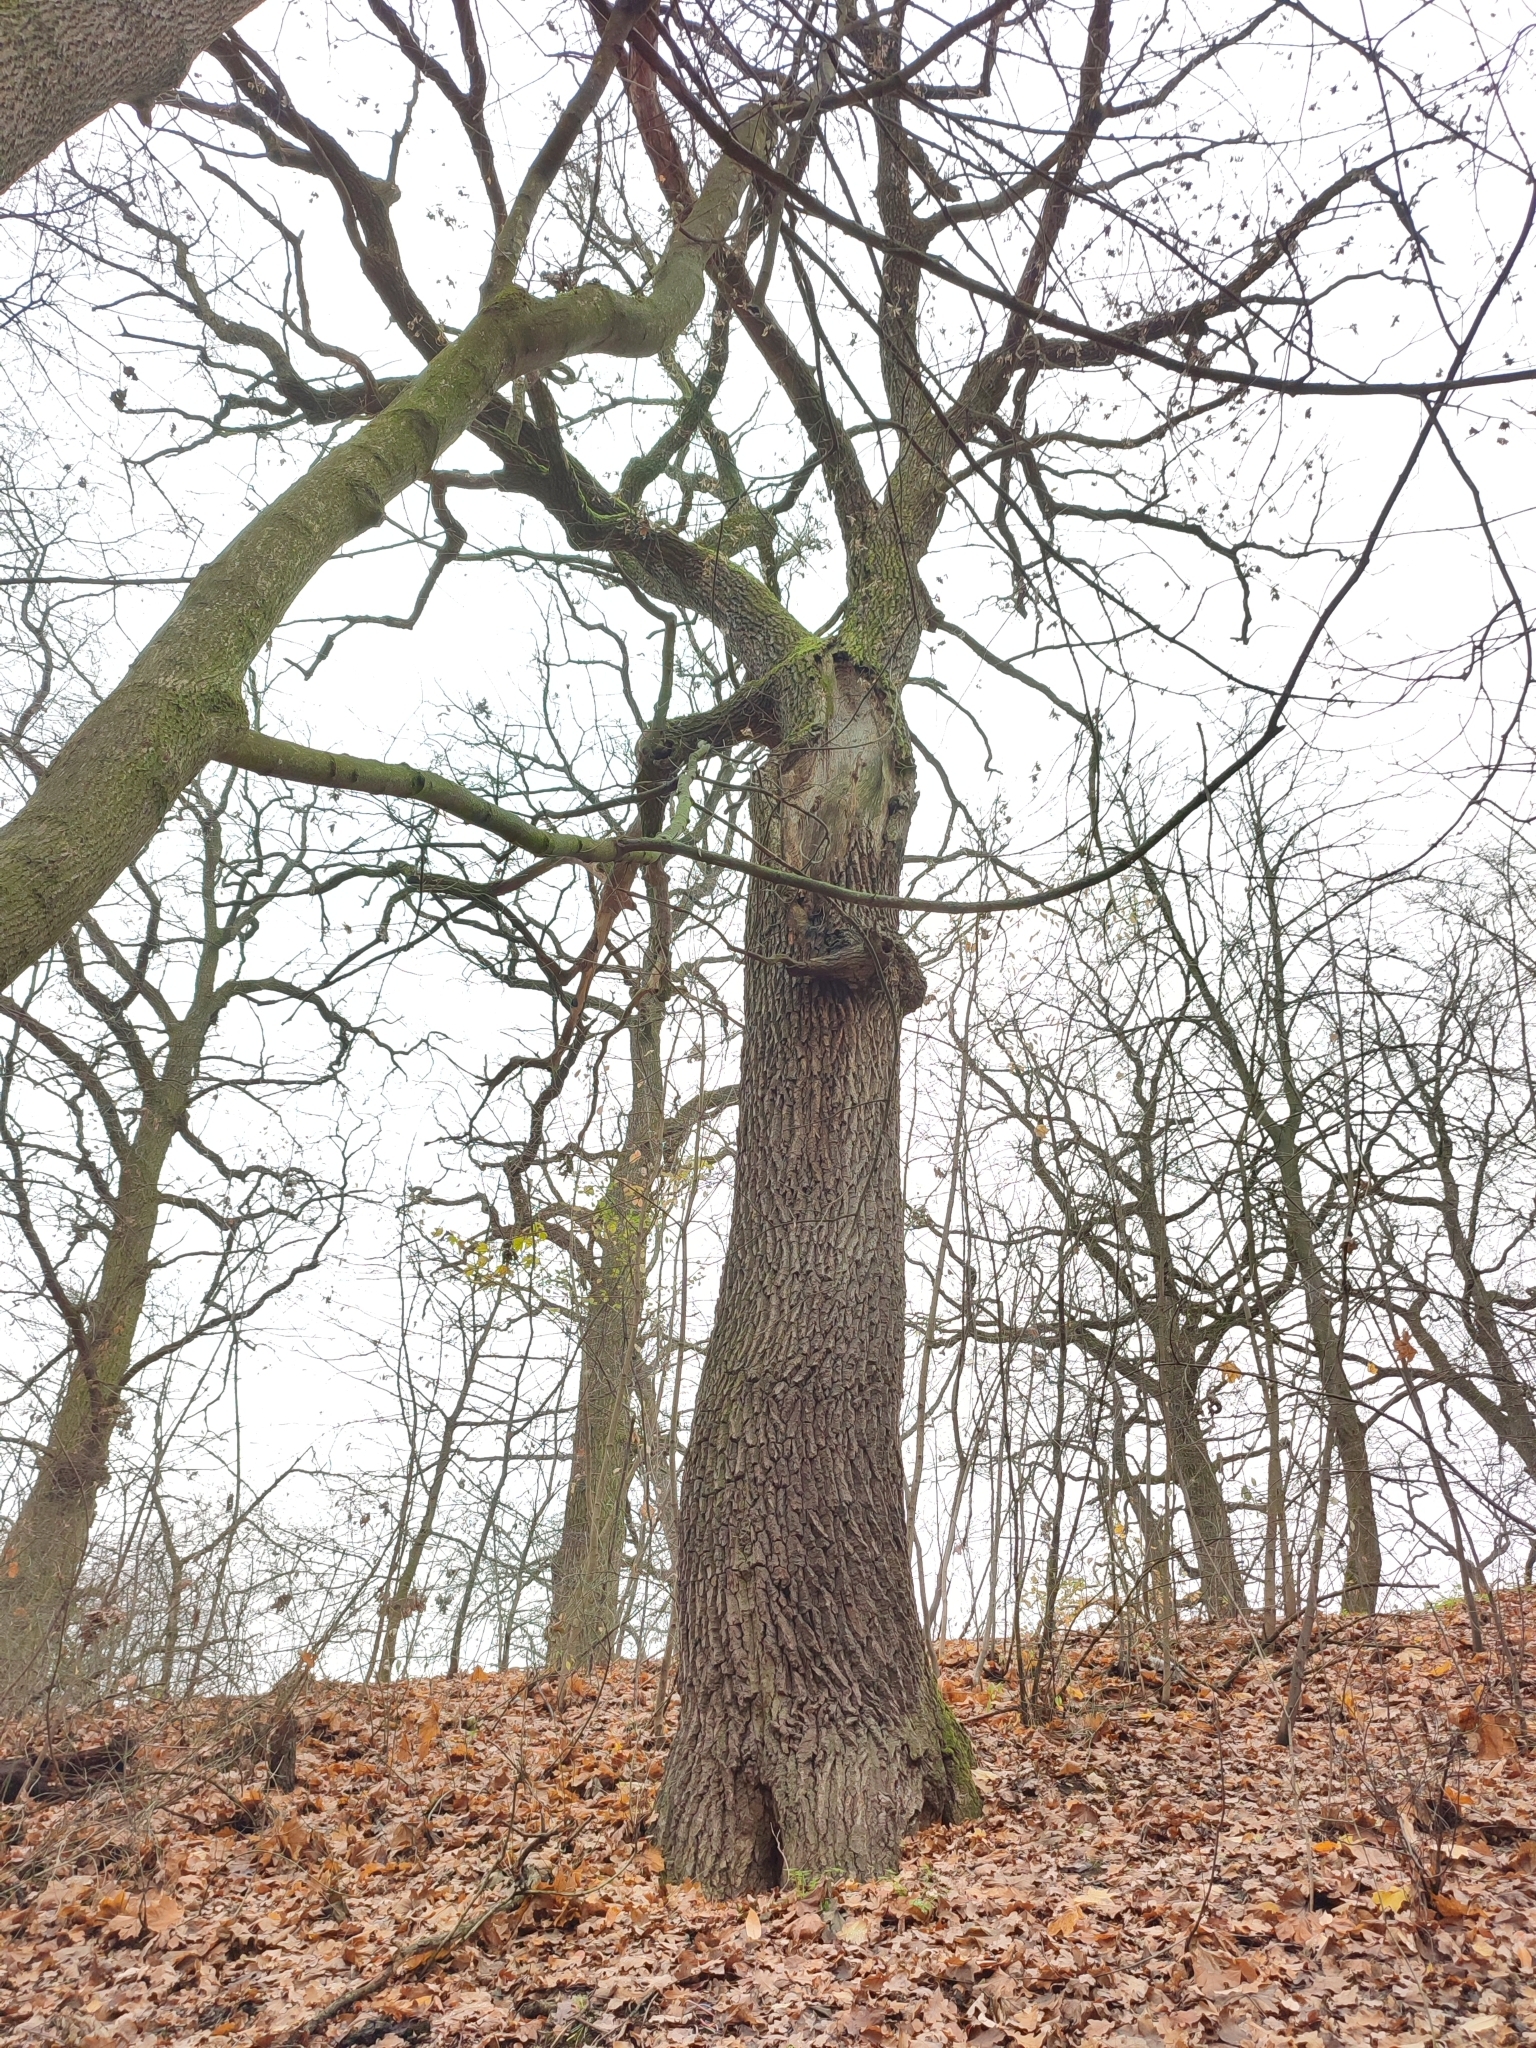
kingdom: Plantae
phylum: Tracheophyta
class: Magnoliopsida
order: Fagales
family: Fagaceae
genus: Quercus
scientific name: Quercus robur
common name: Pedunculate oak
